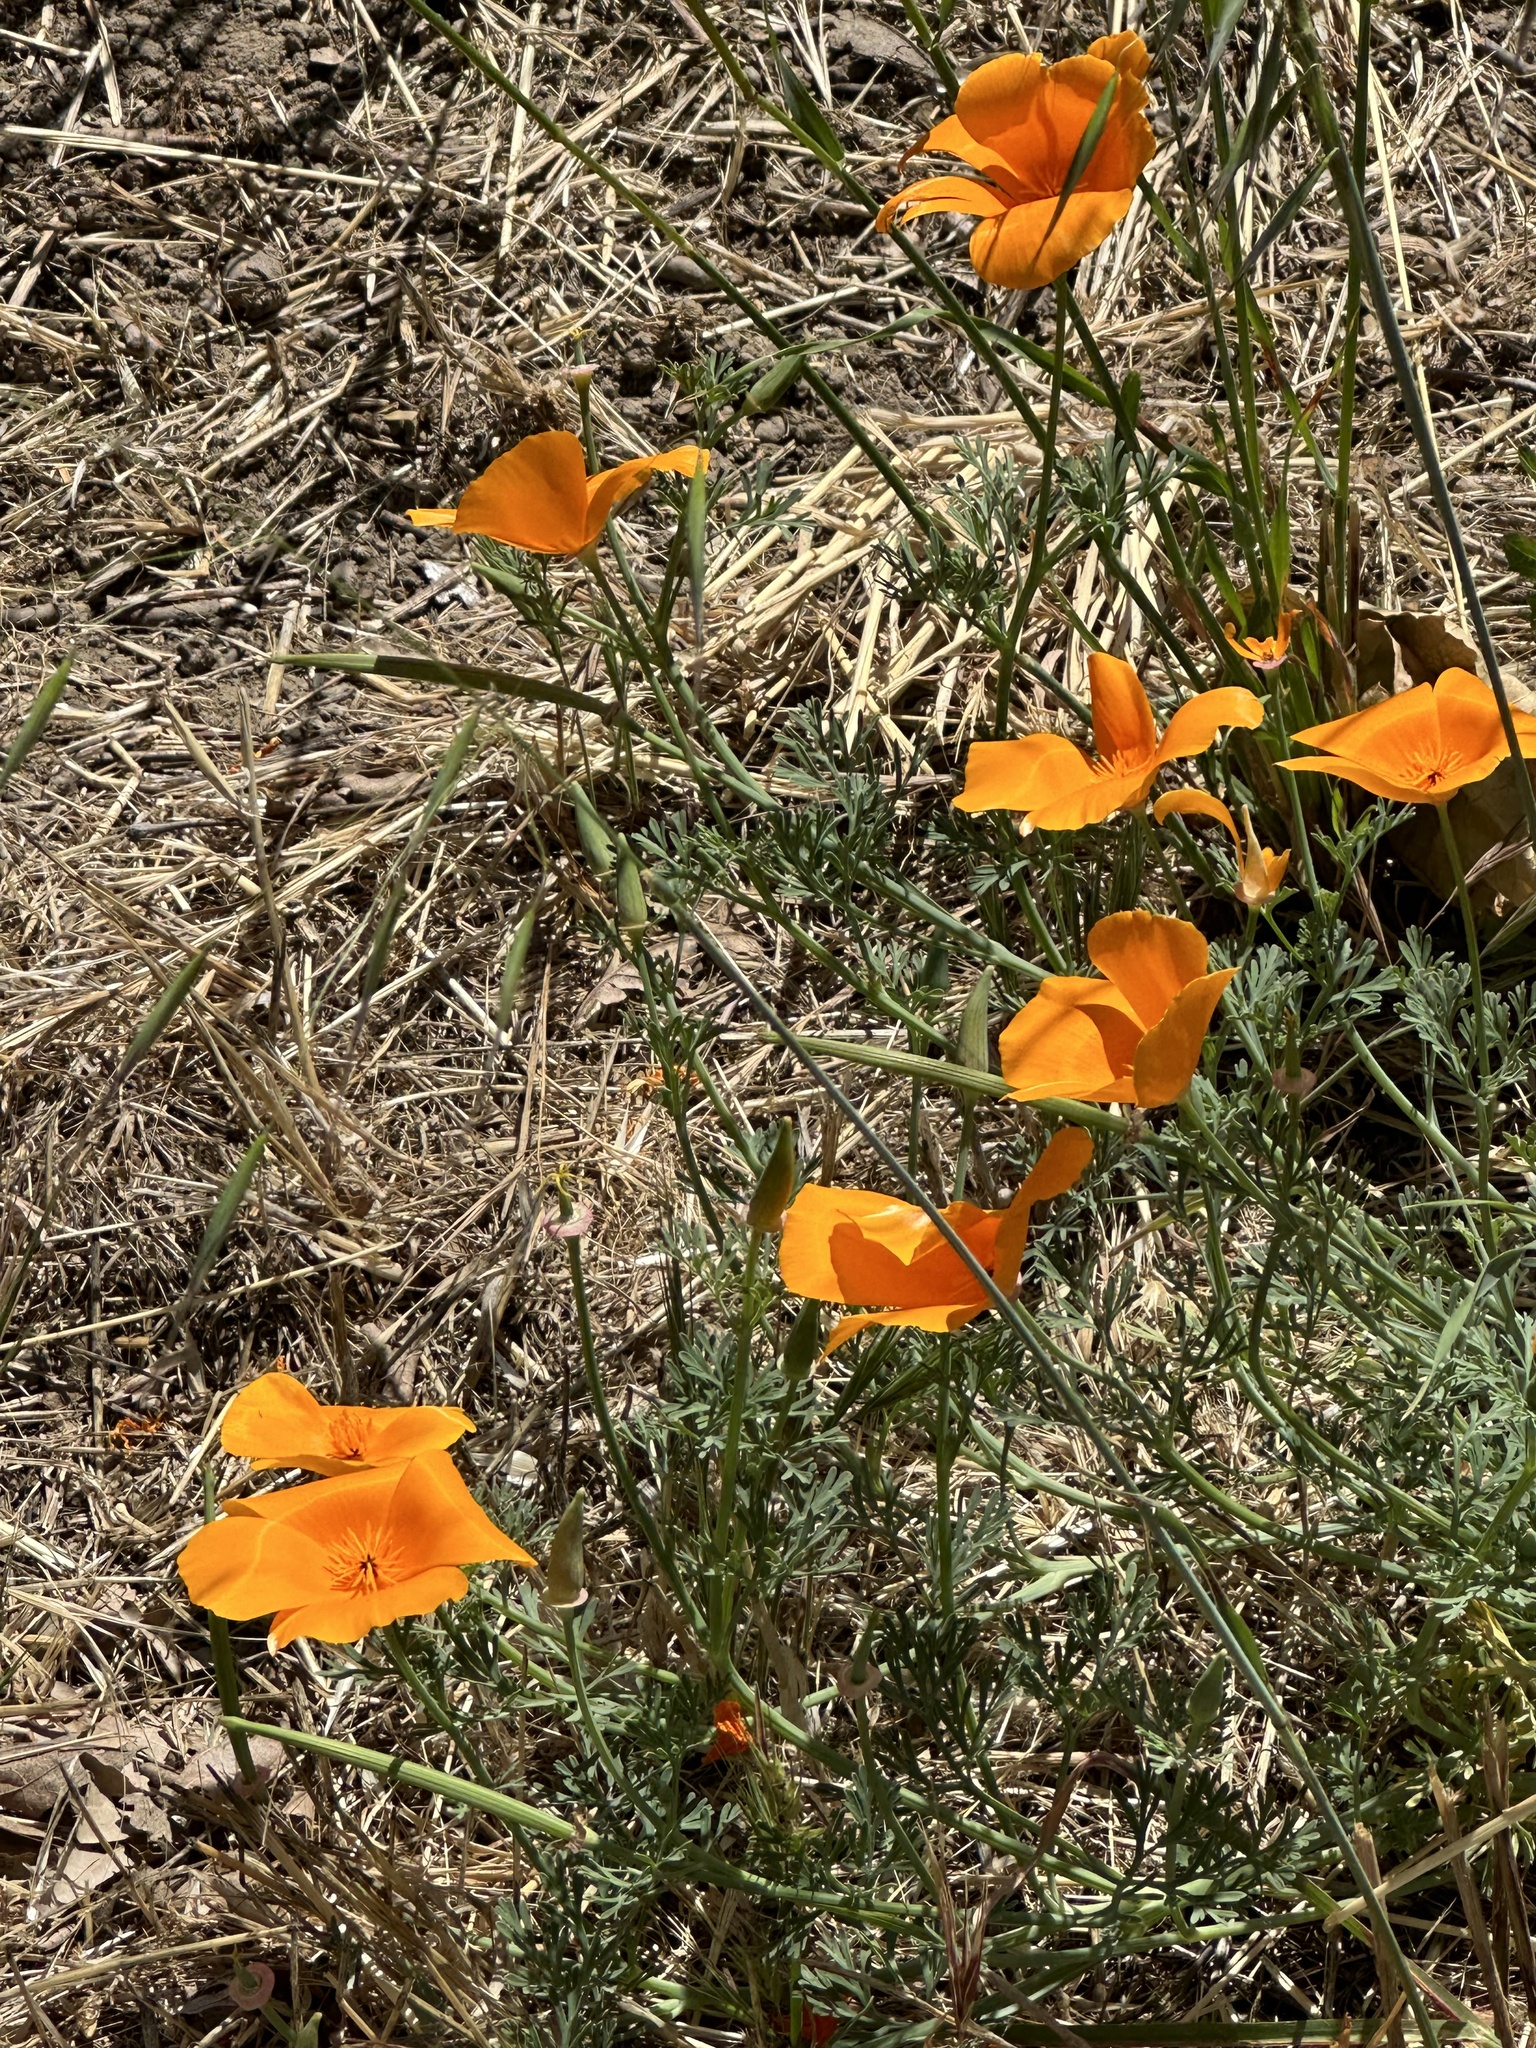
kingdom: Plantae
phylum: Tracheophyta
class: Magnoliopsida
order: Ranunculales
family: Papaveraceae
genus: Eschscholzia
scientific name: Eschscholzia californica
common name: California poppy
